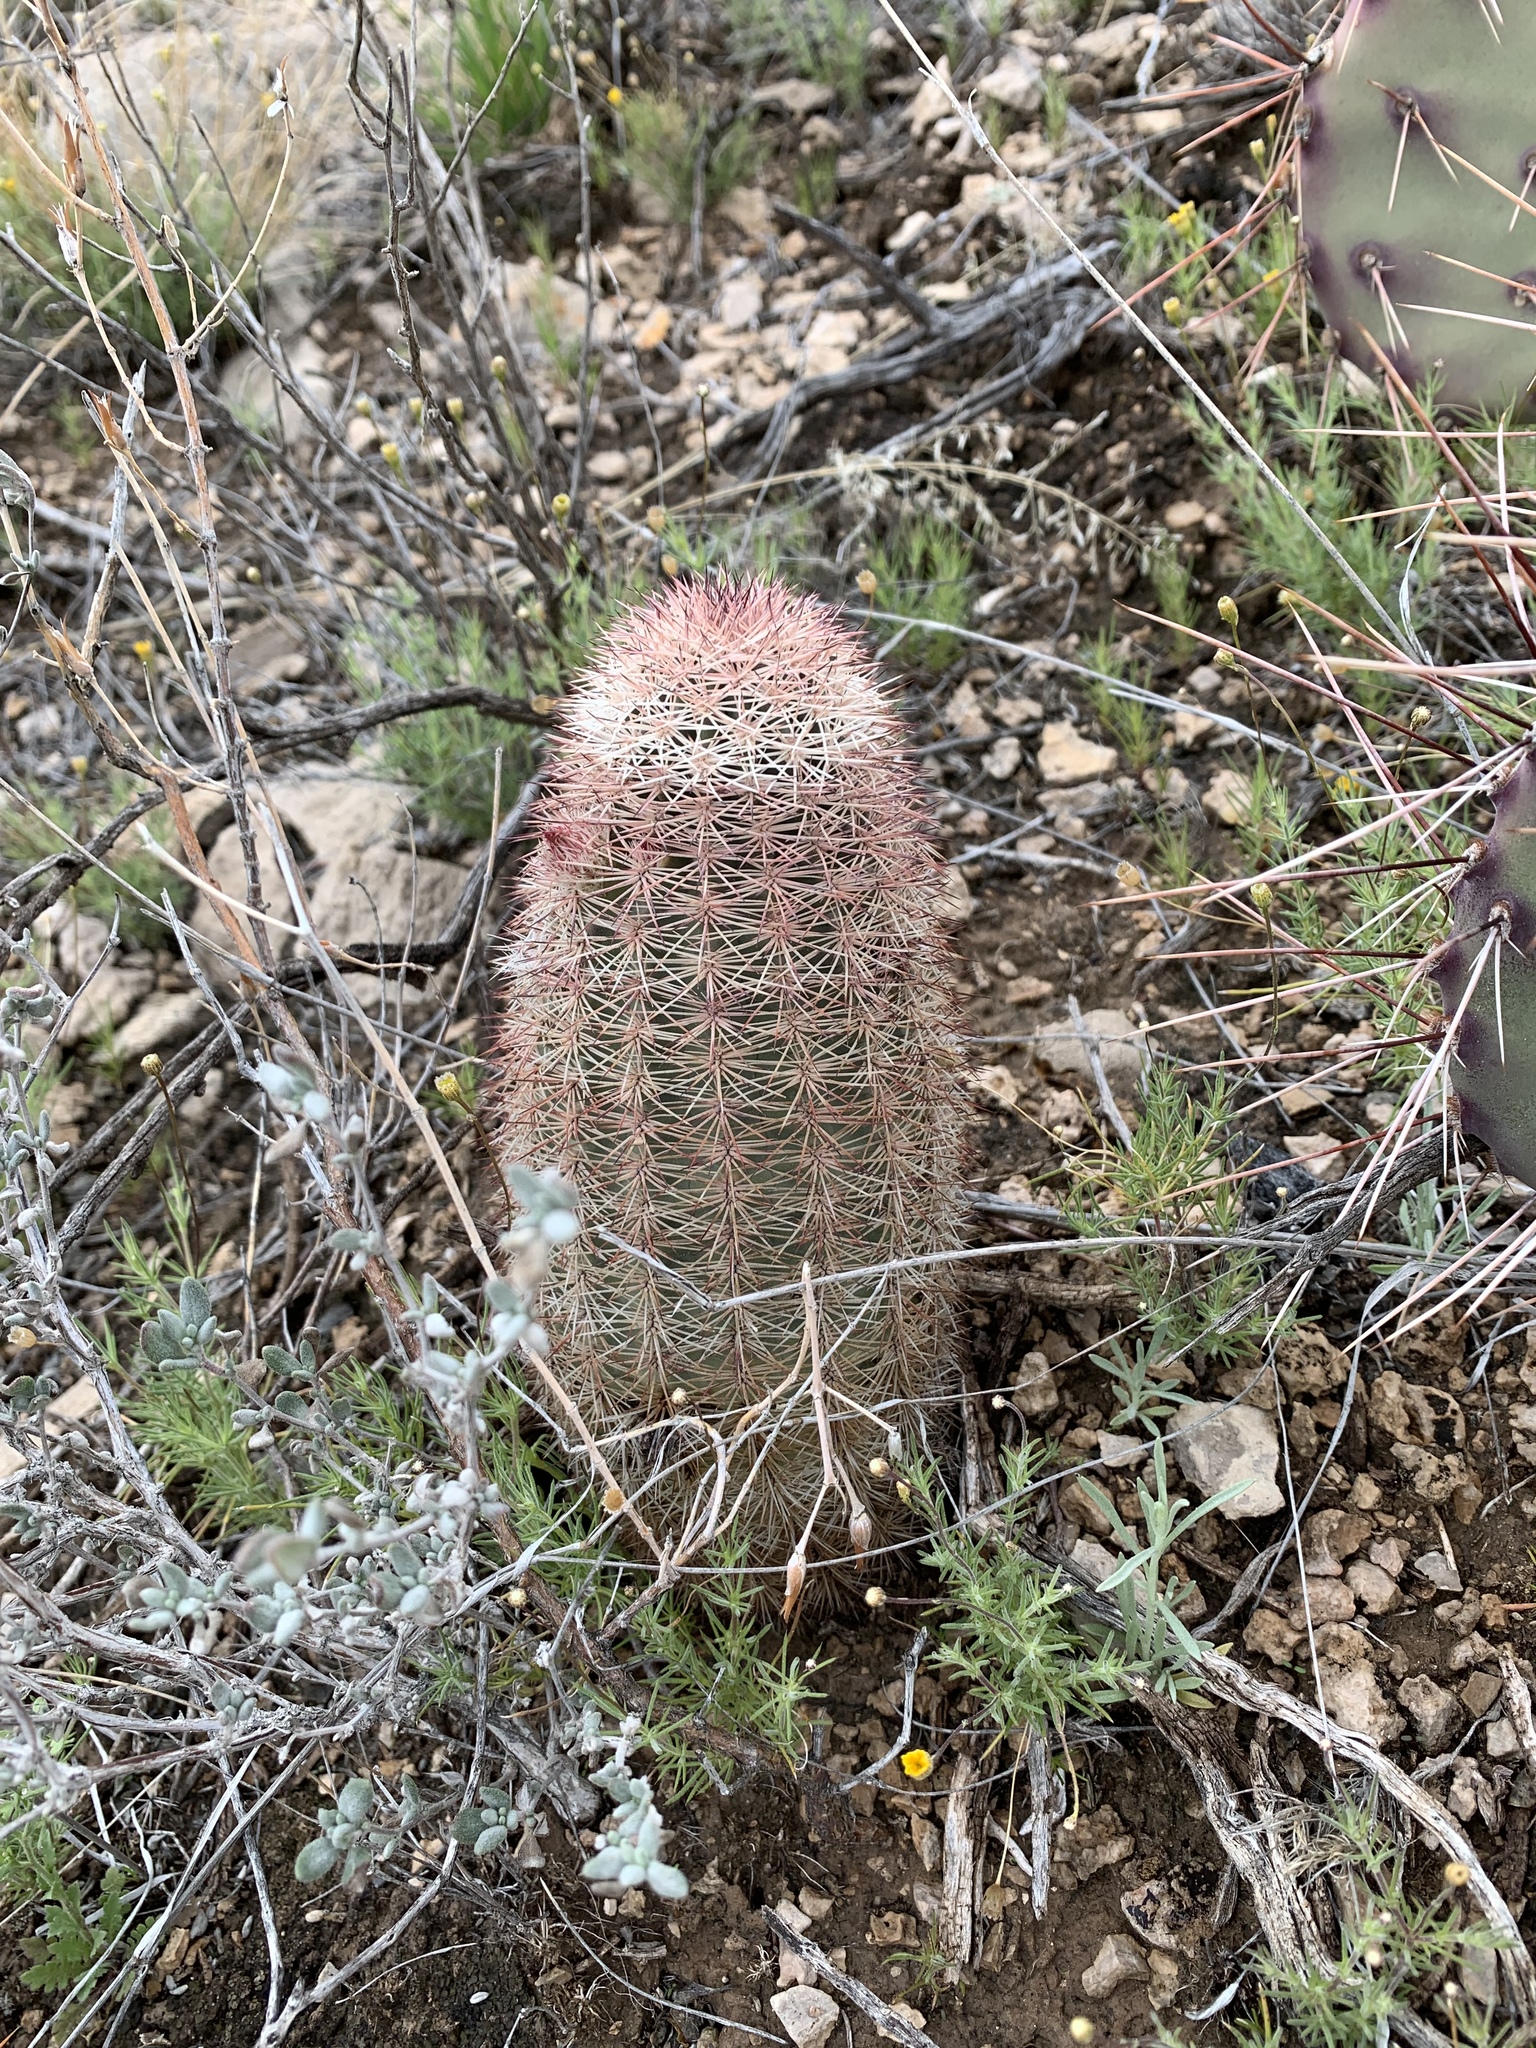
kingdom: Plantae
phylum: Tracheophyta
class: Magnoliopsida
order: Caryophyllales
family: Cactaceae
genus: Echinocereus
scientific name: Echinocereus dasyacanthus
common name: Spiny hedgehog cactus
